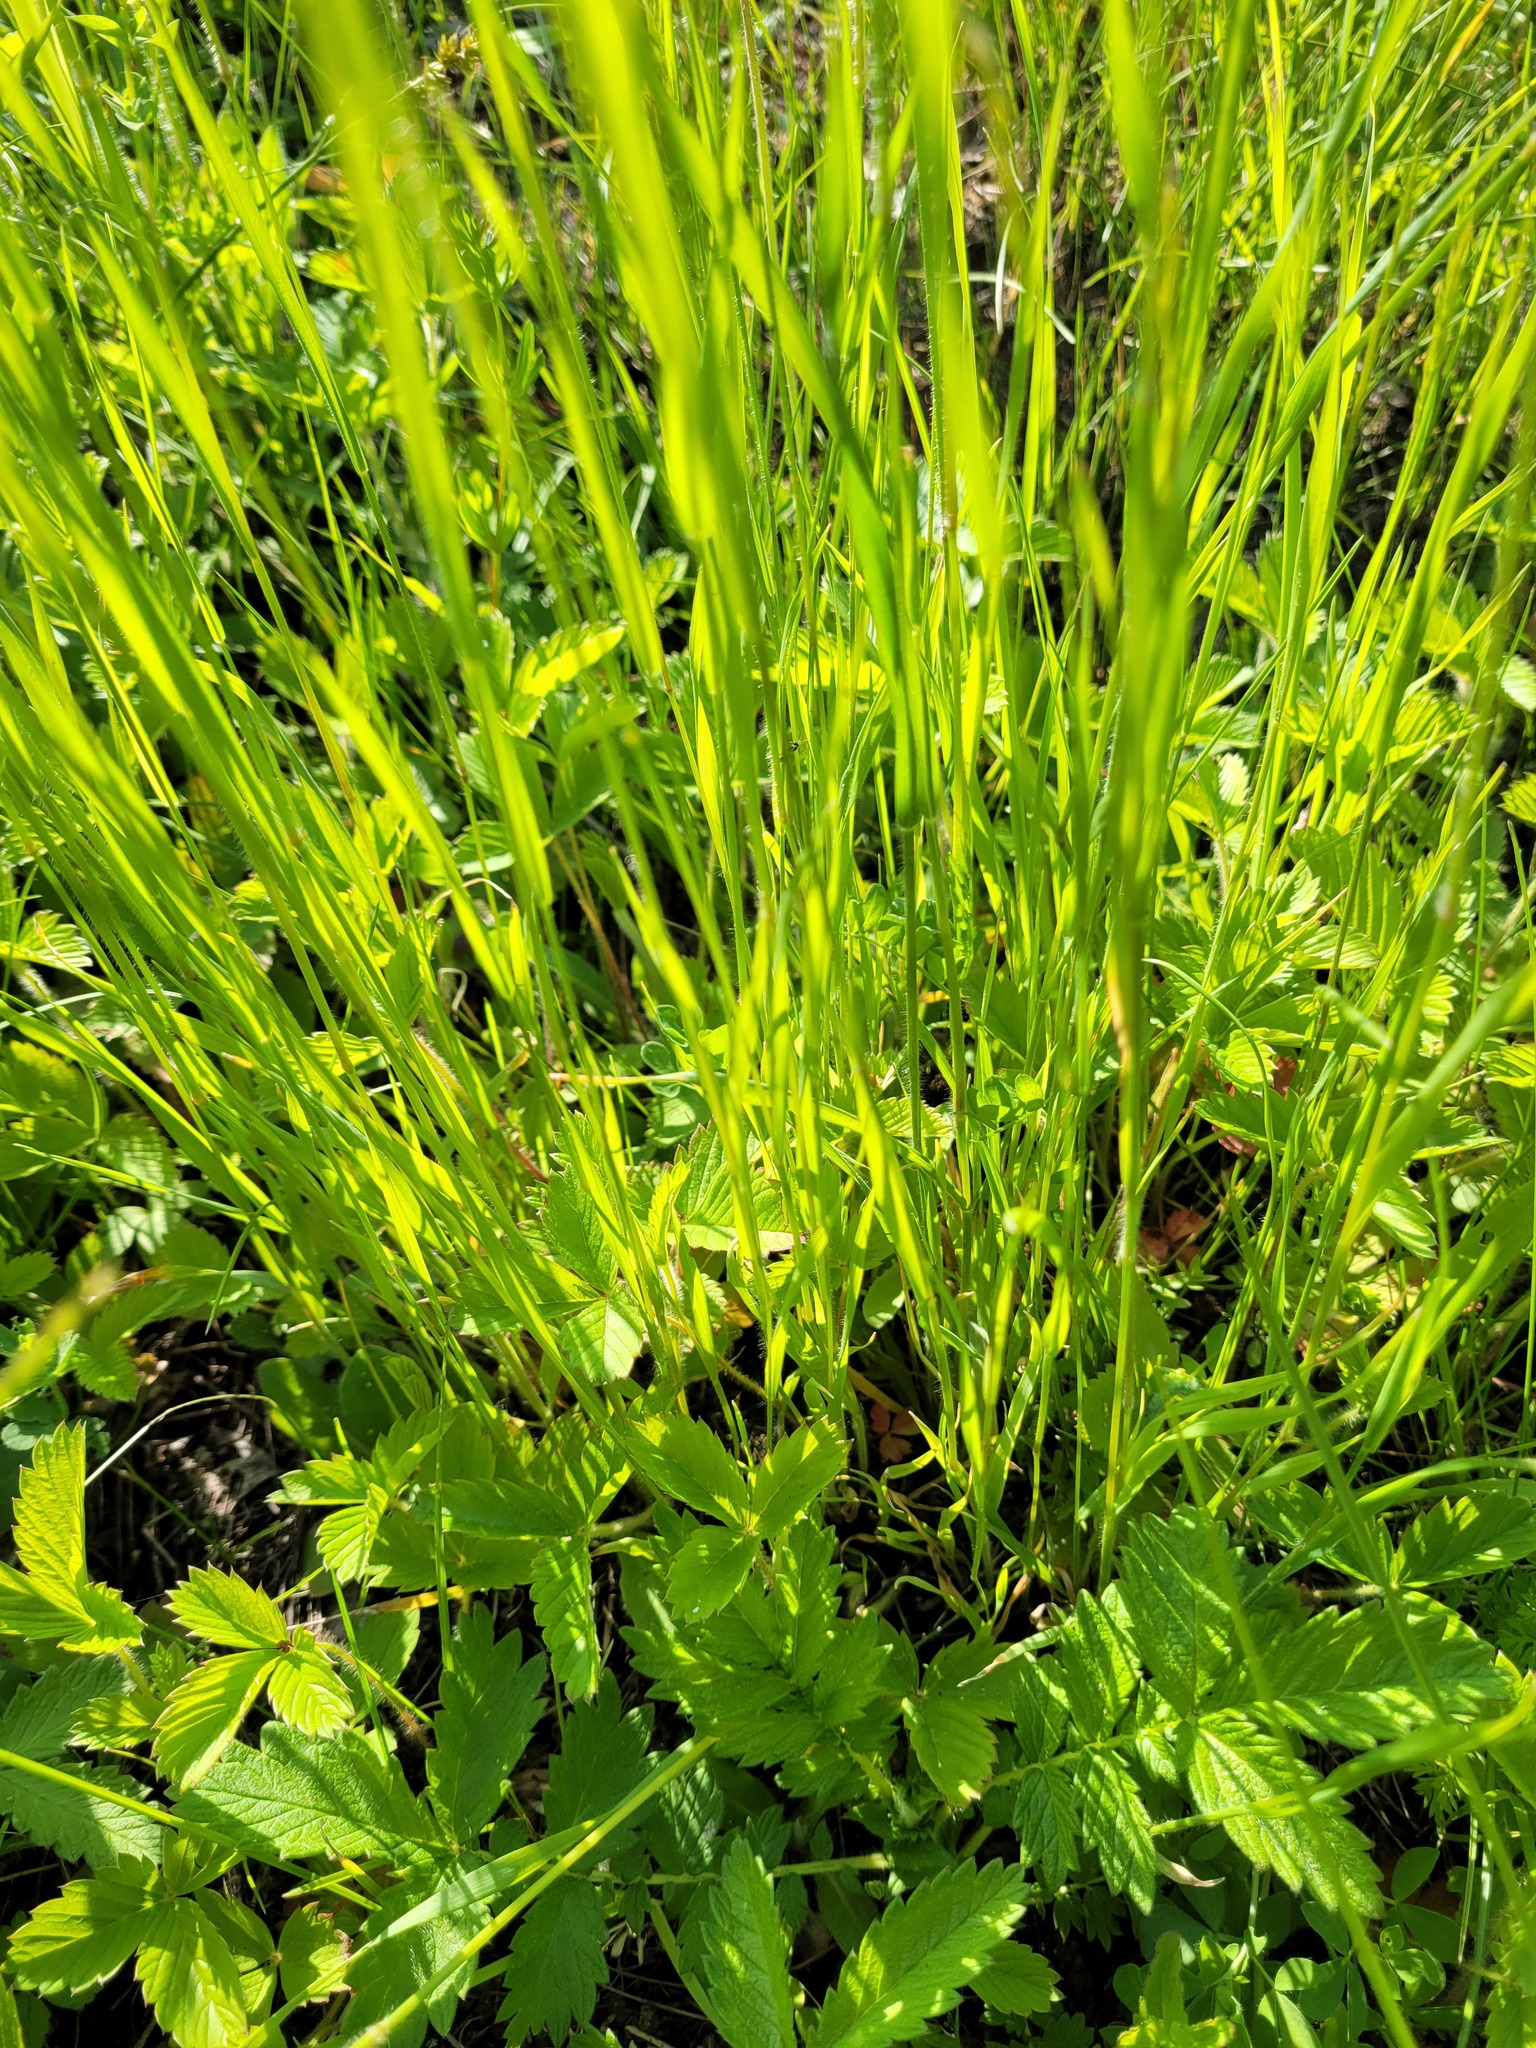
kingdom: Plantae
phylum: Tracheophyta
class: Liliopsida
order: Poales
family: Poaceae
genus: Trisetum
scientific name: Trisetum flavescens
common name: Yellow oat-grass
